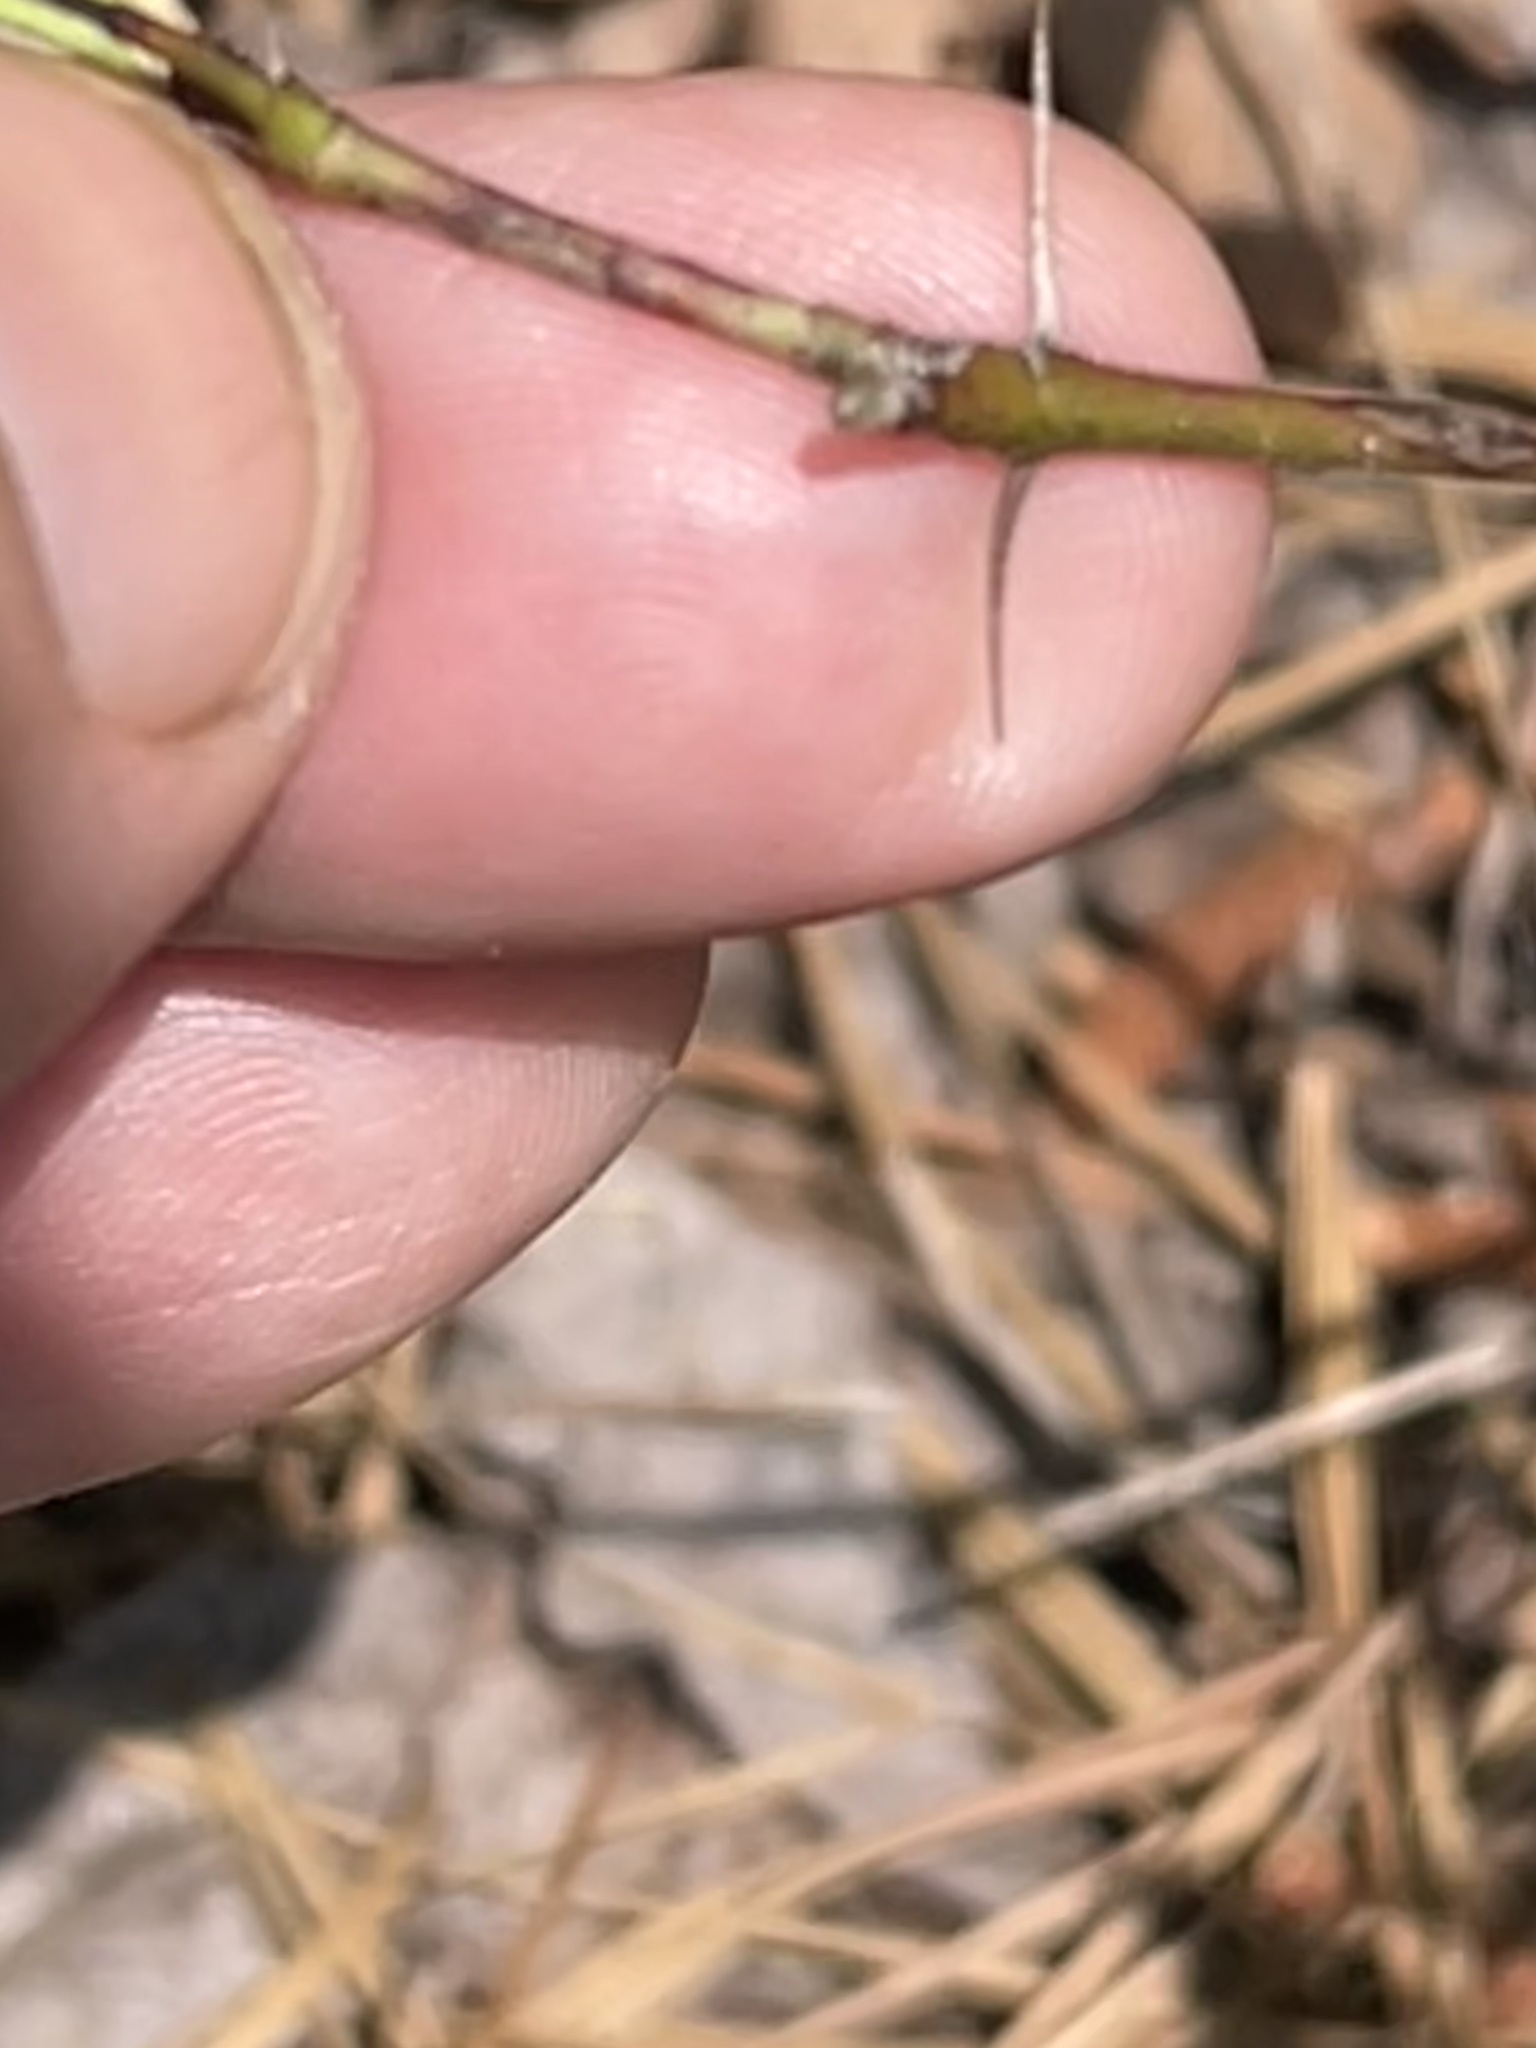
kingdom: Plantae
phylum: Tracheophyta
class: Magnoliopsida
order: Rosales
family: Rosaceae
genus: Rosa
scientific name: Rosa carolina
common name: Pasture rose
